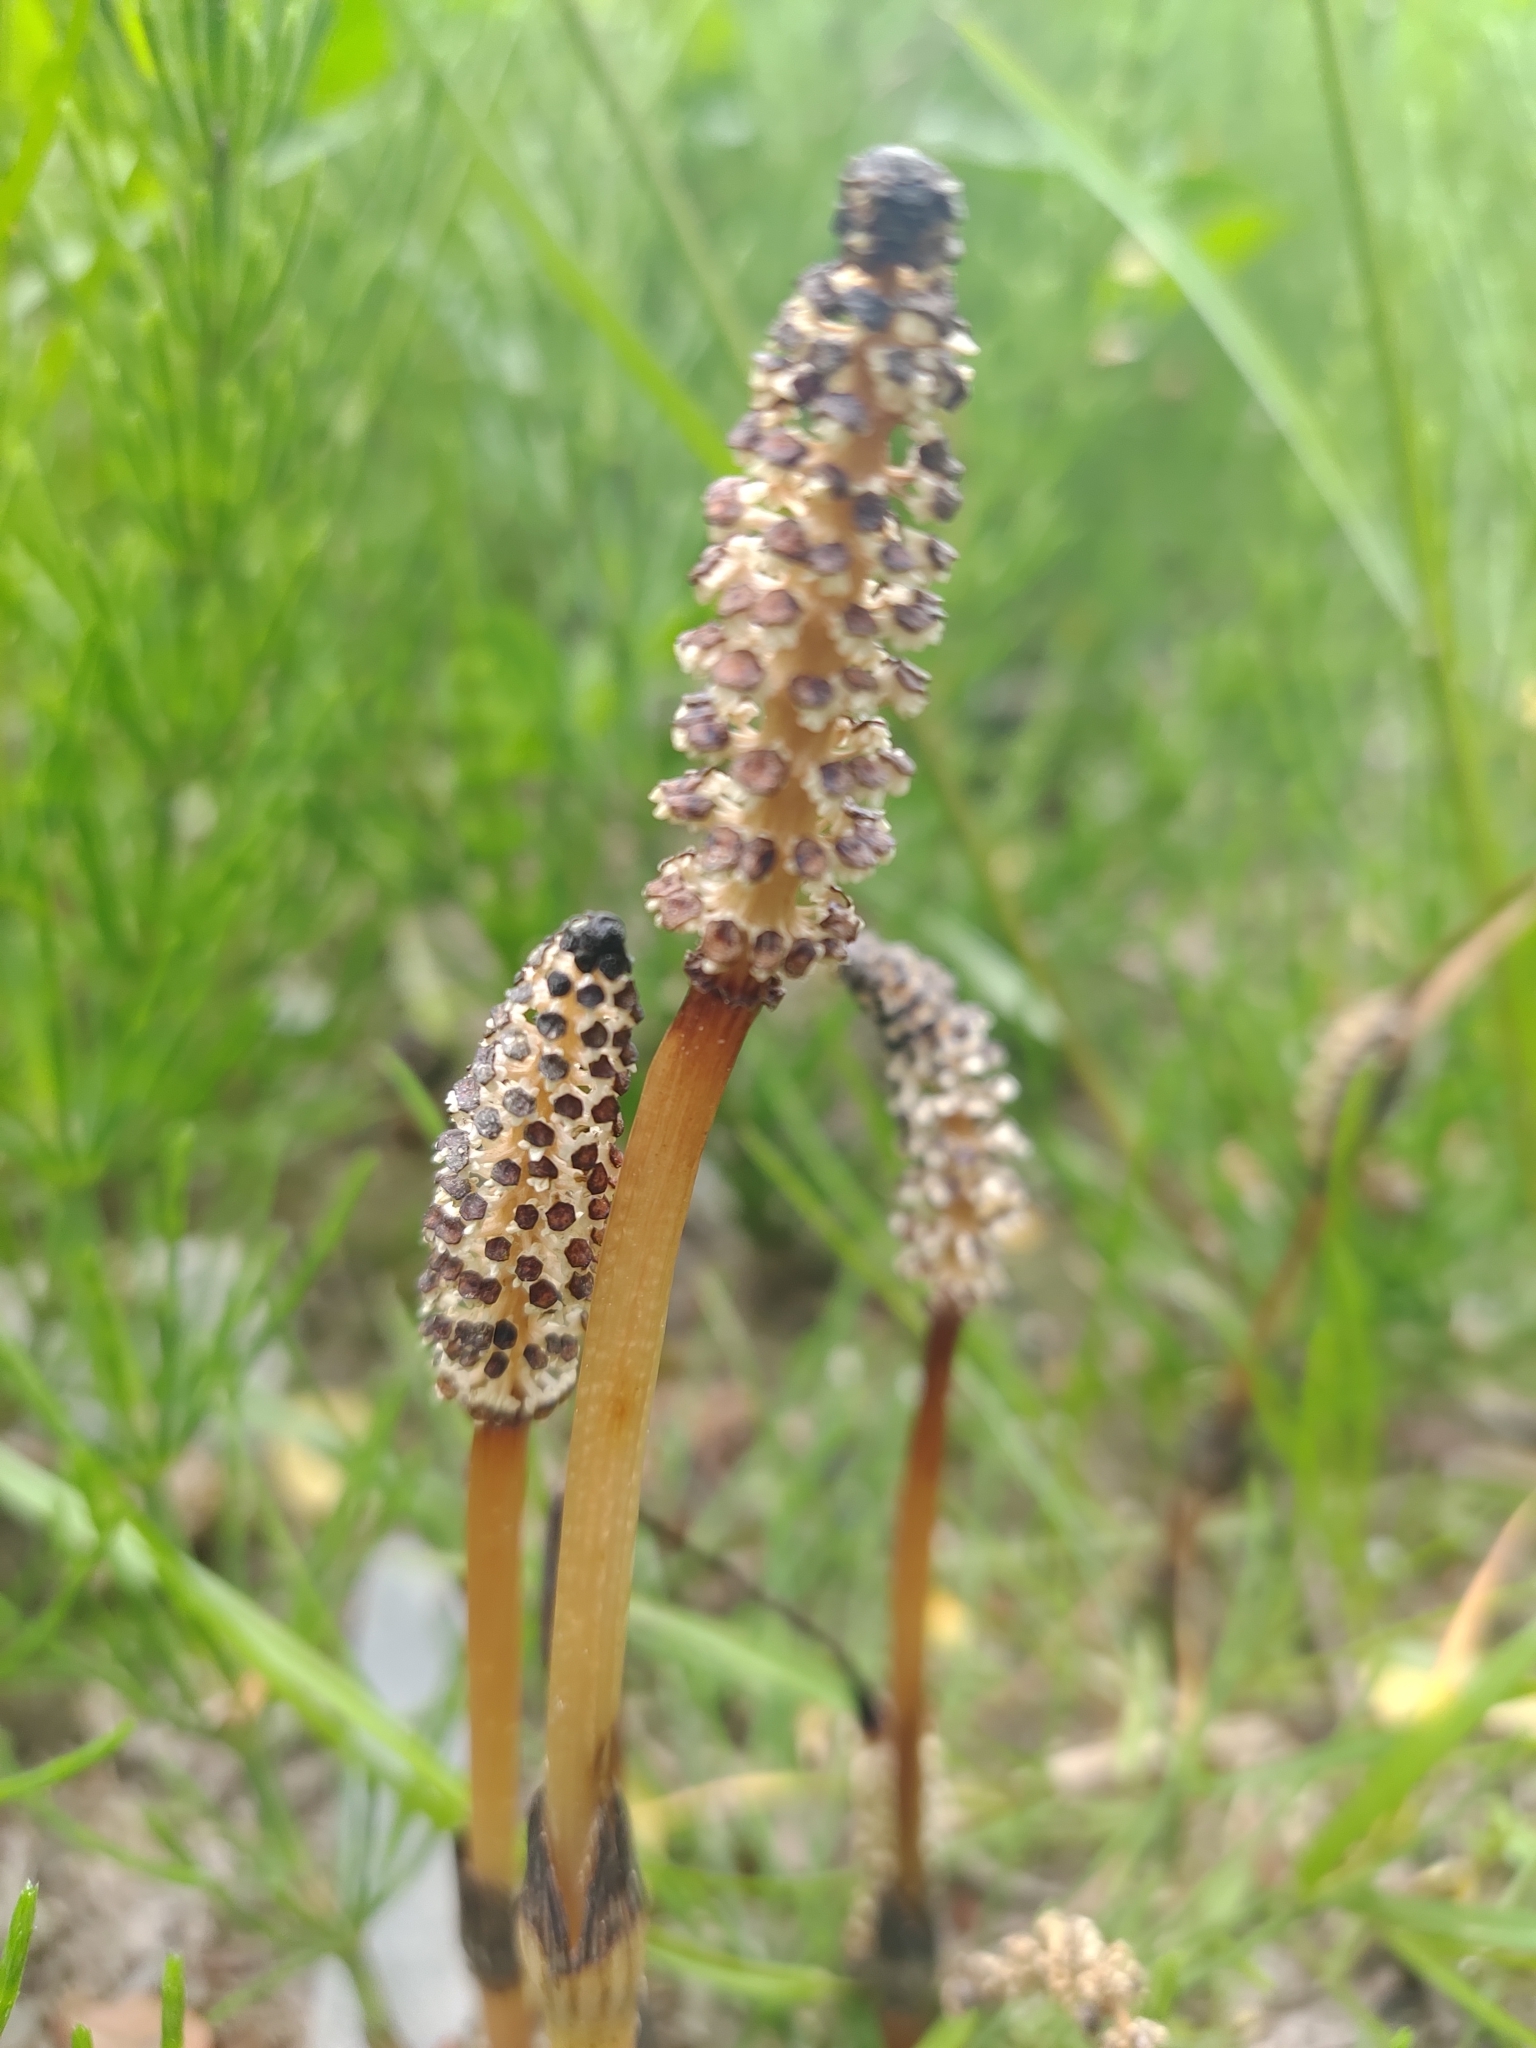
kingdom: Plantae
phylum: Tracheophyta
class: Polypodiopsida
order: Equisetales
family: Equisetaceae
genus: Equisetum
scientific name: Equisetum arvense
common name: Field horsetail
